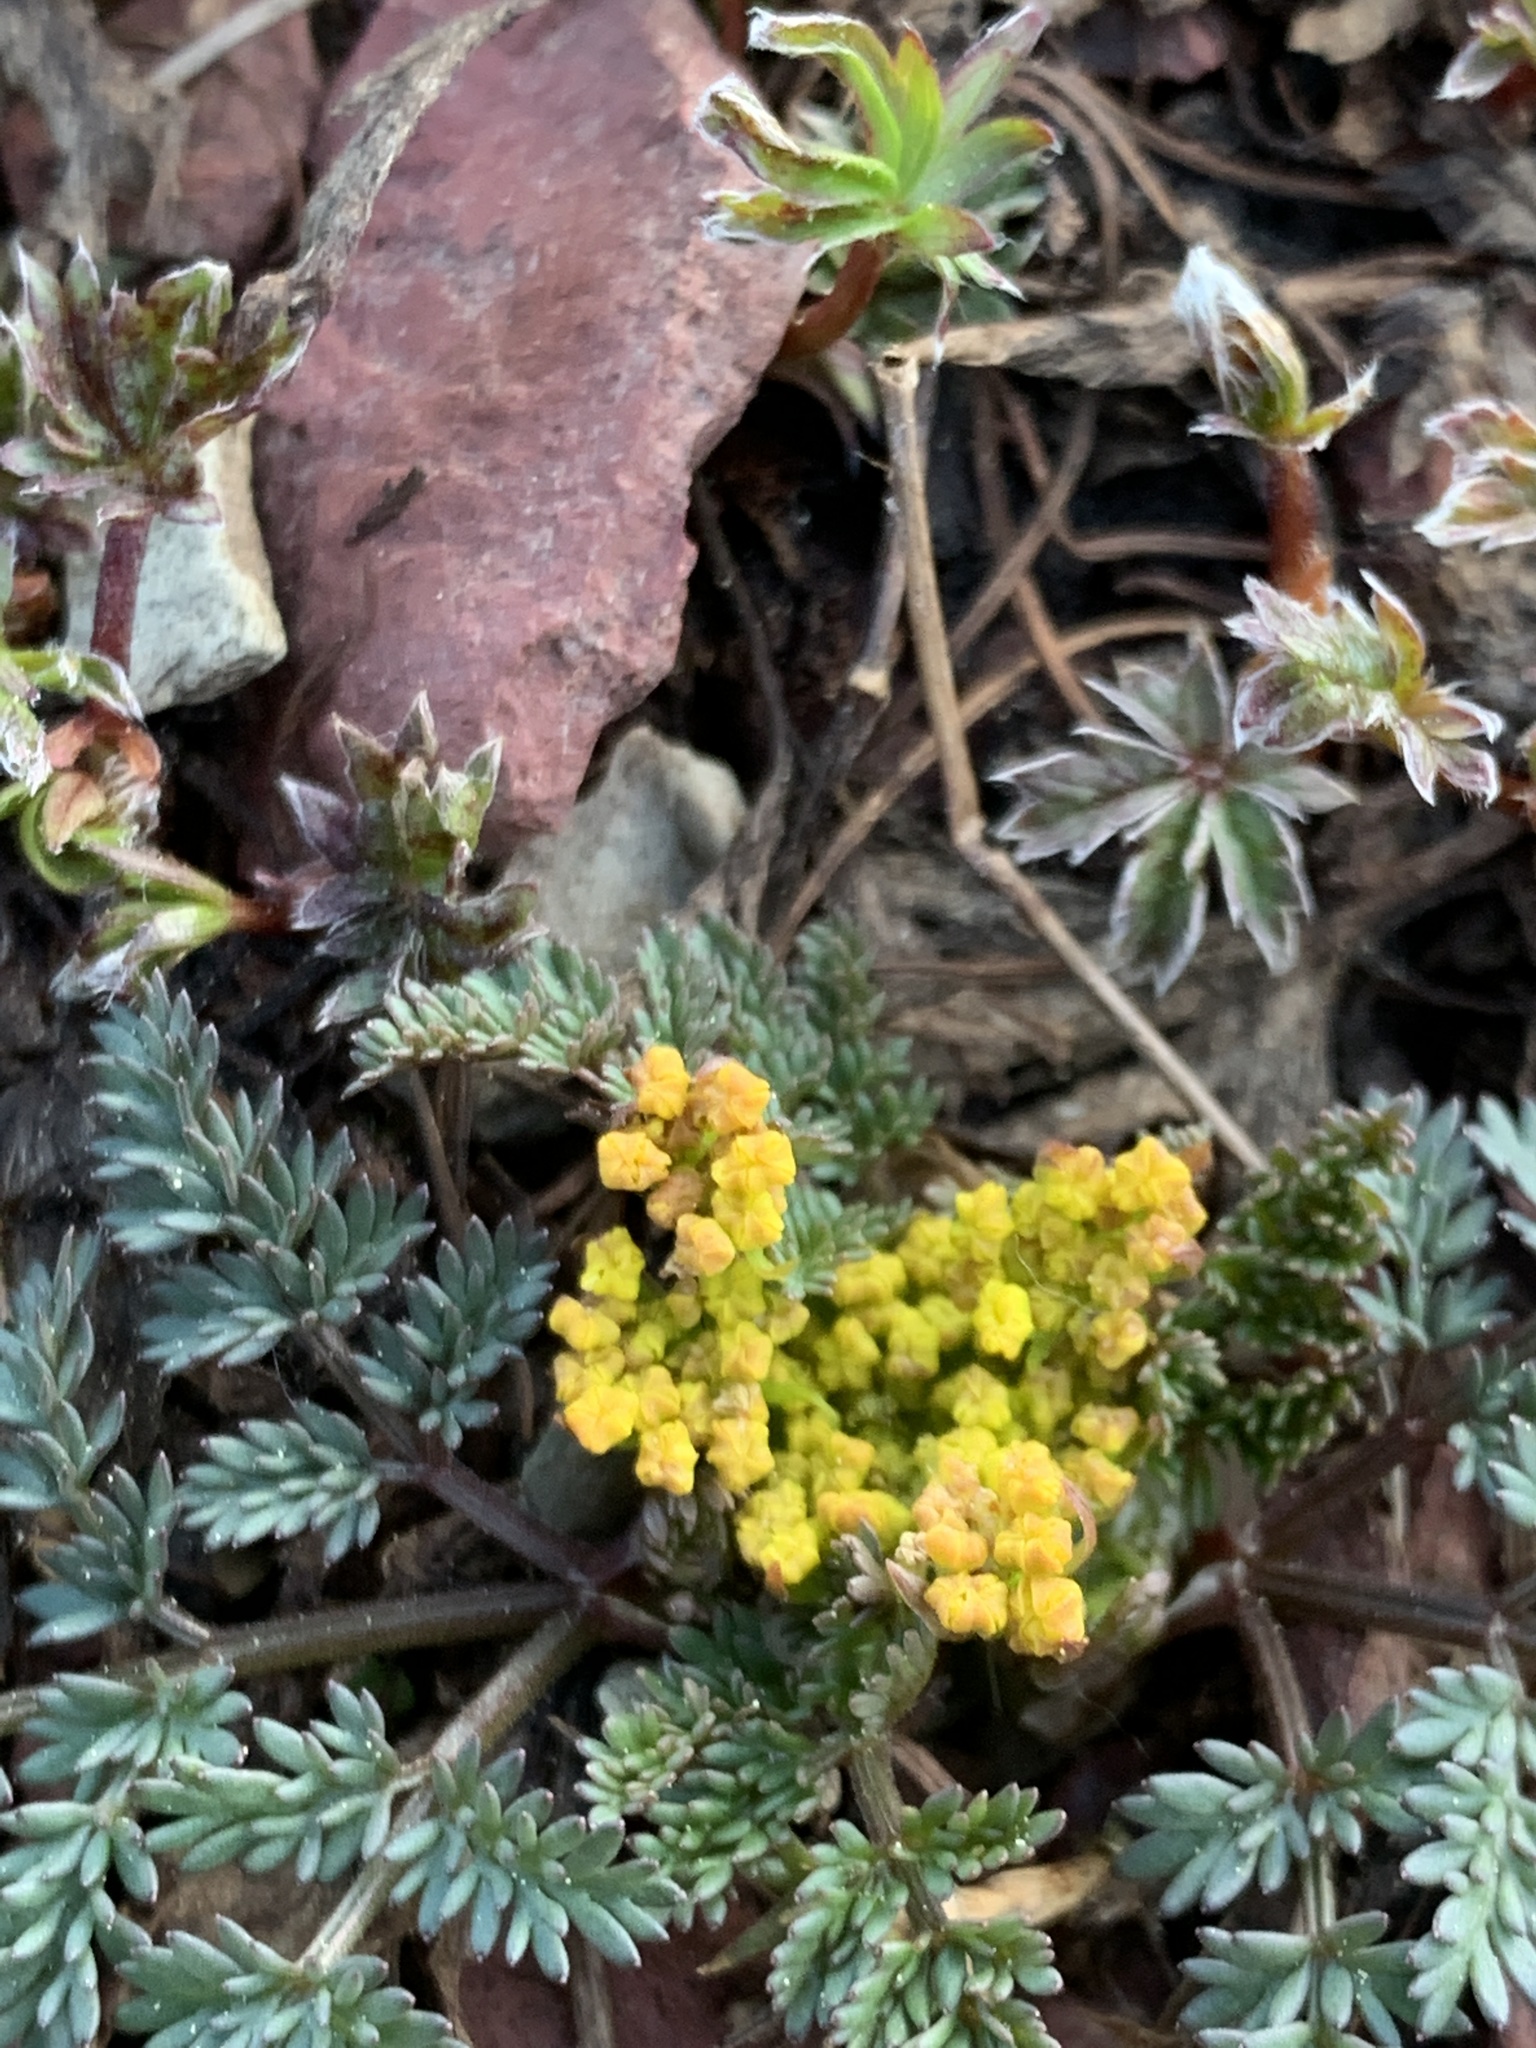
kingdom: Plantae
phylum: Tracheophyta
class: Magnoliopsida
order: Apiales
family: Apiaceae
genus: Lomatium
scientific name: Lomatium sandbergii
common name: Sandberg's biscuitroot
